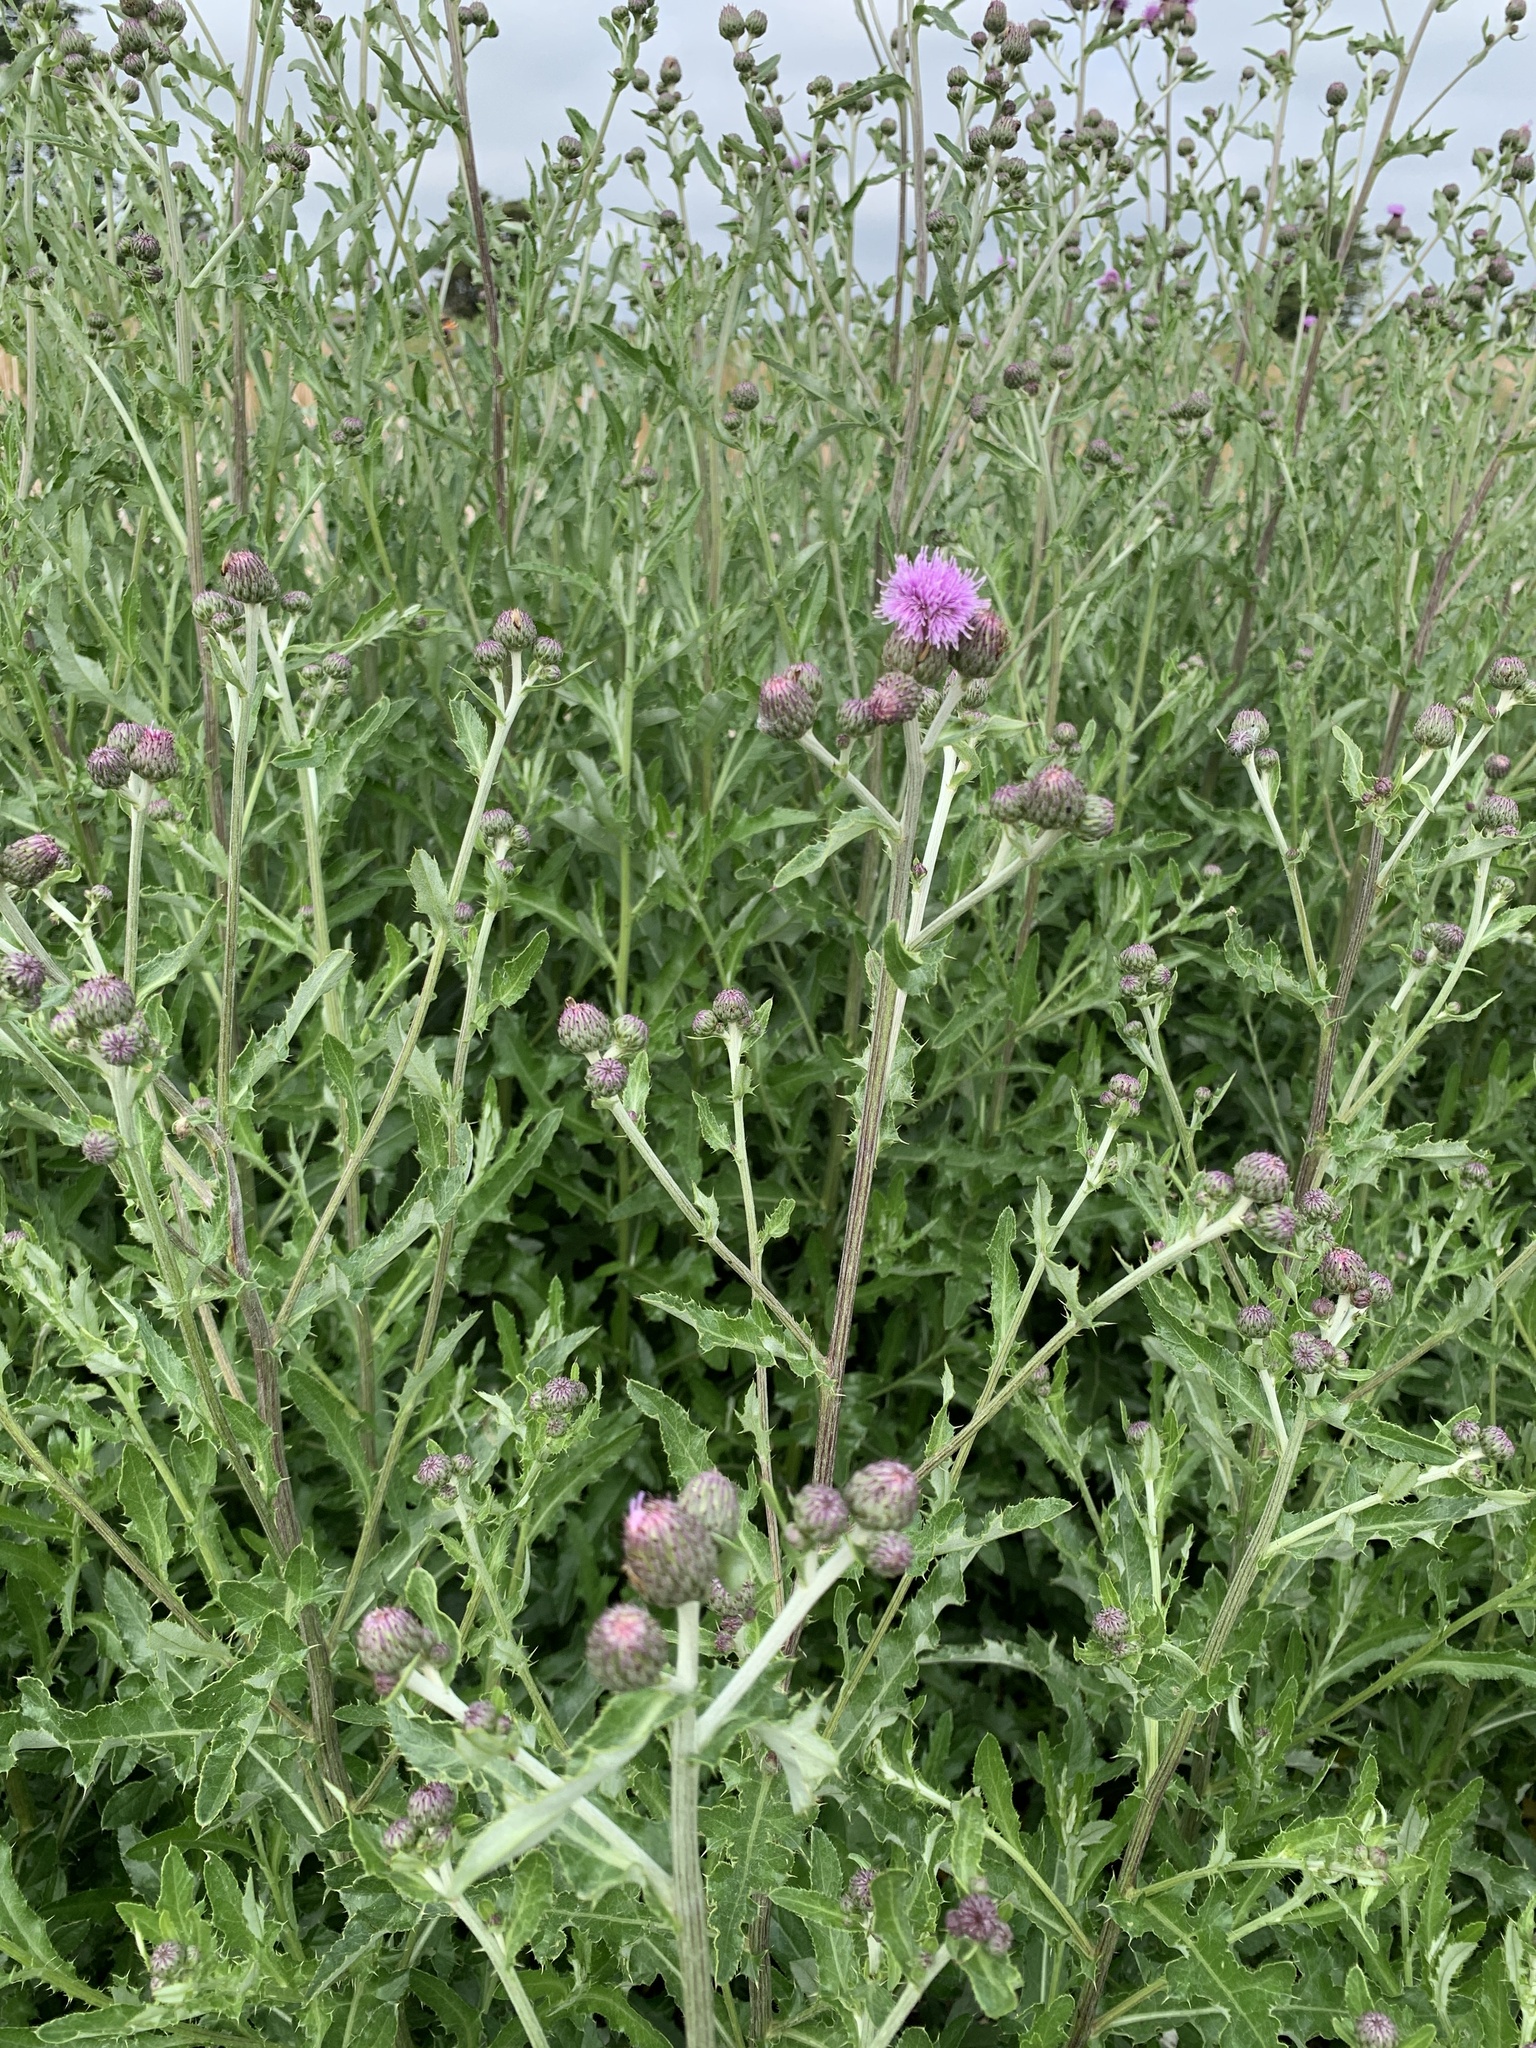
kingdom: Plantae
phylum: Tracheophyta
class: Magnoliopsida
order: Asterales
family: Asteraceae
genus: Cirsium
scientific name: Cirsium arvense
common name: Creeping thistle
